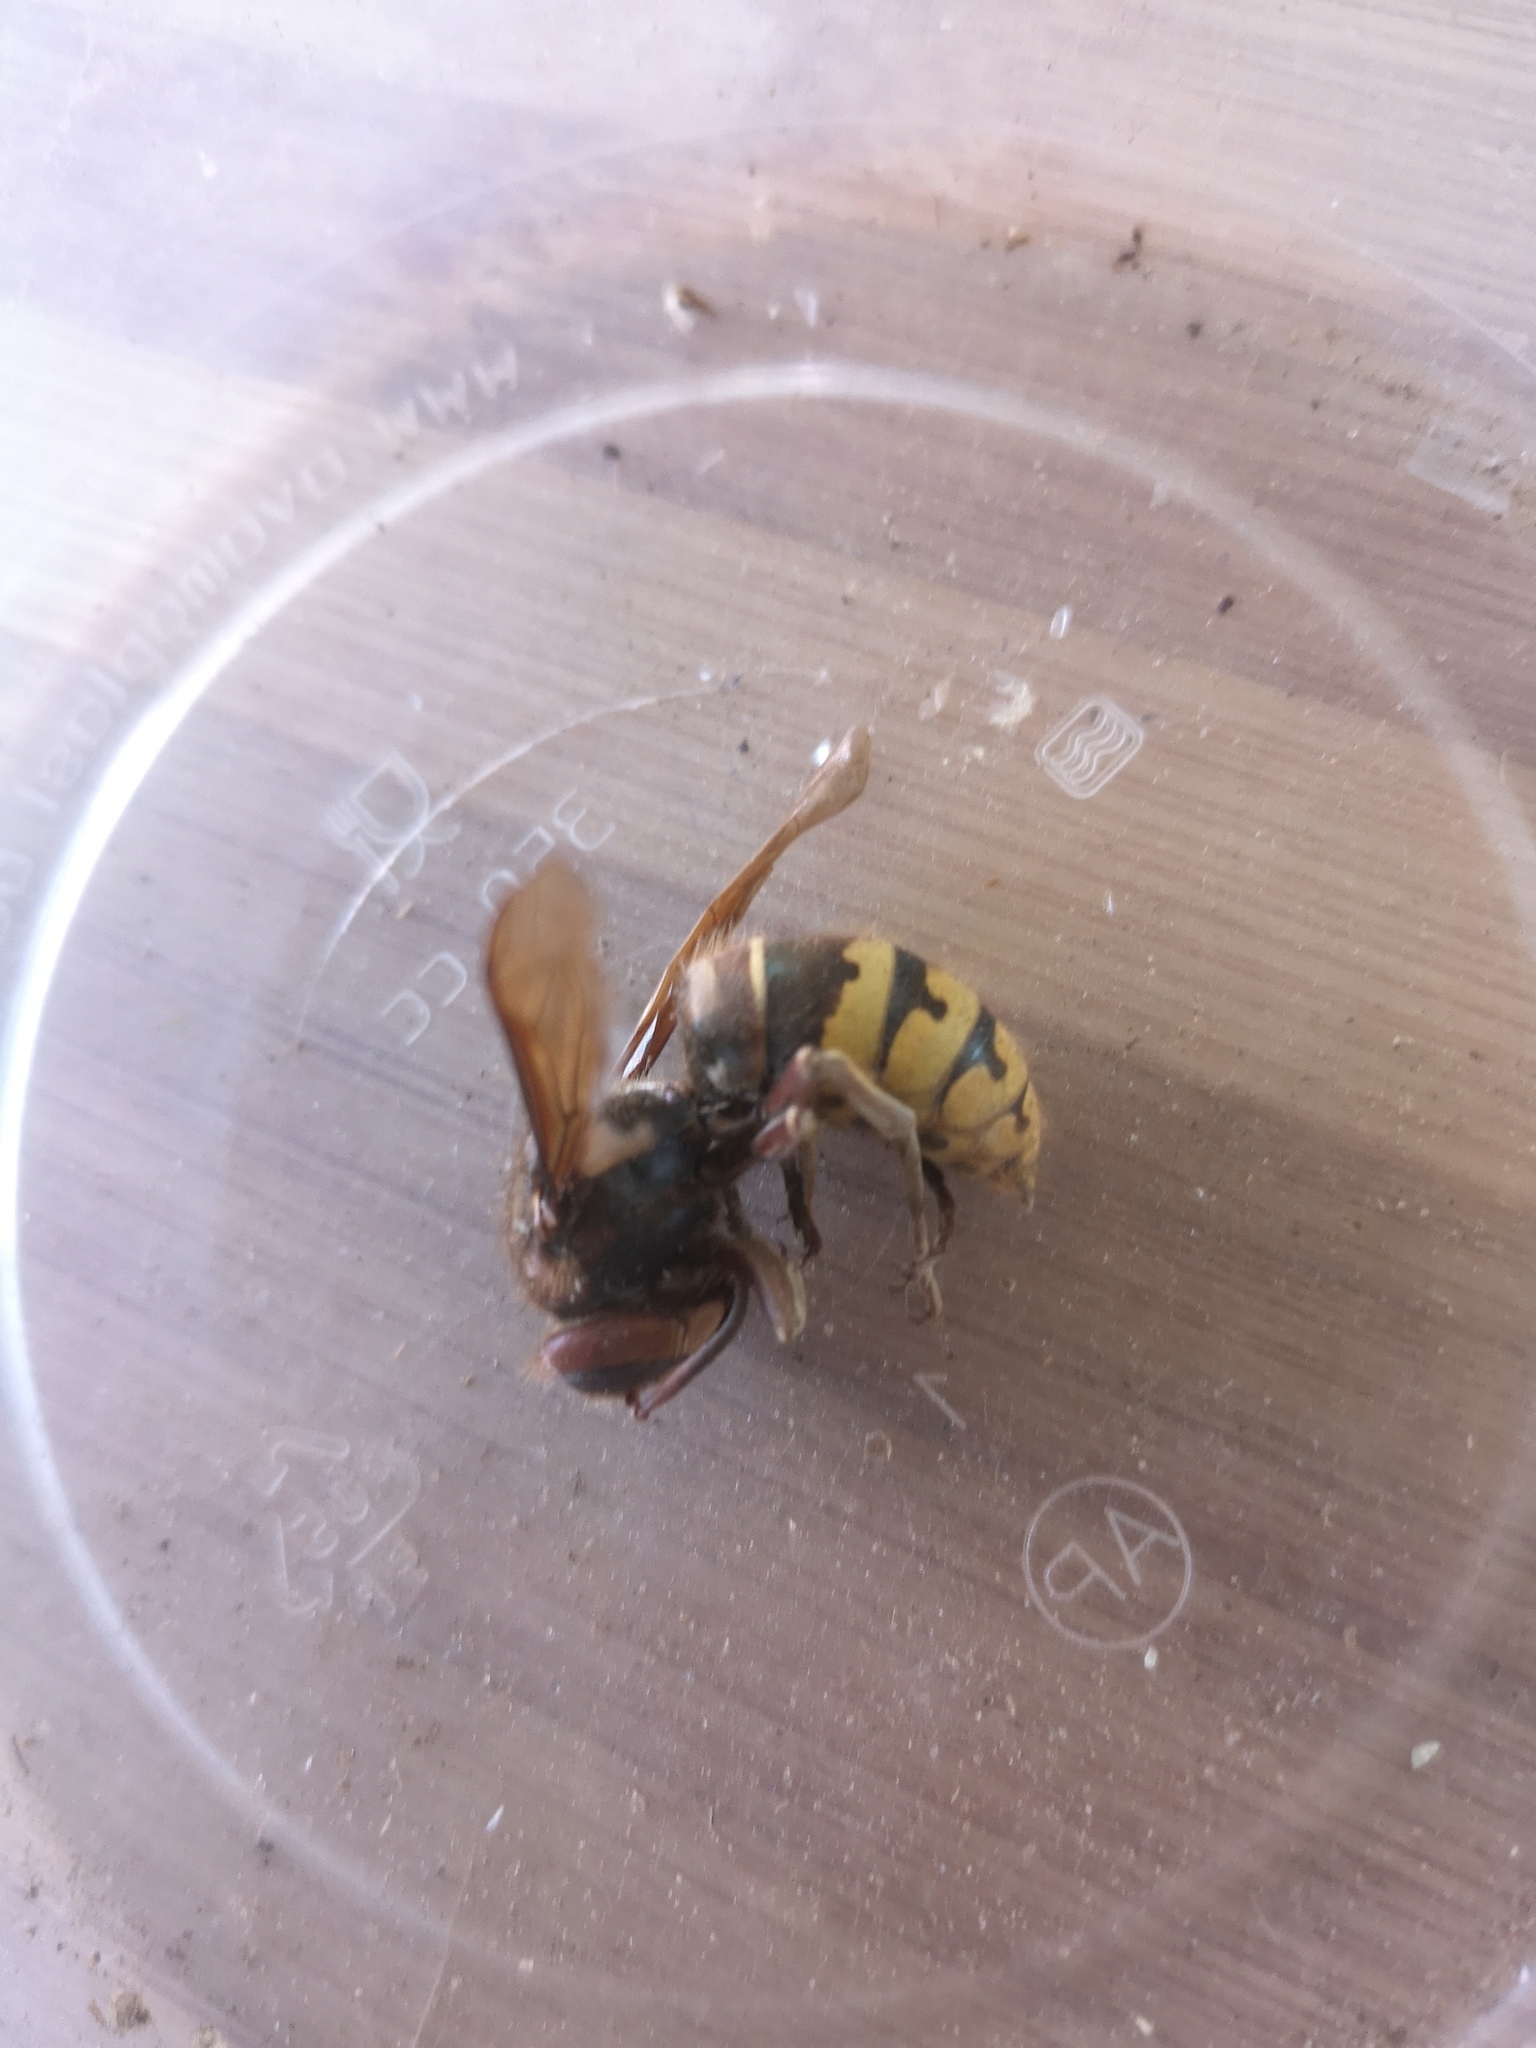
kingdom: Animalia
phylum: Arthropoda
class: Insecta
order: Hymenoptera
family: Vespidae
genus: Vespa
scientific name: Vespa crabro
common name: Hornet
